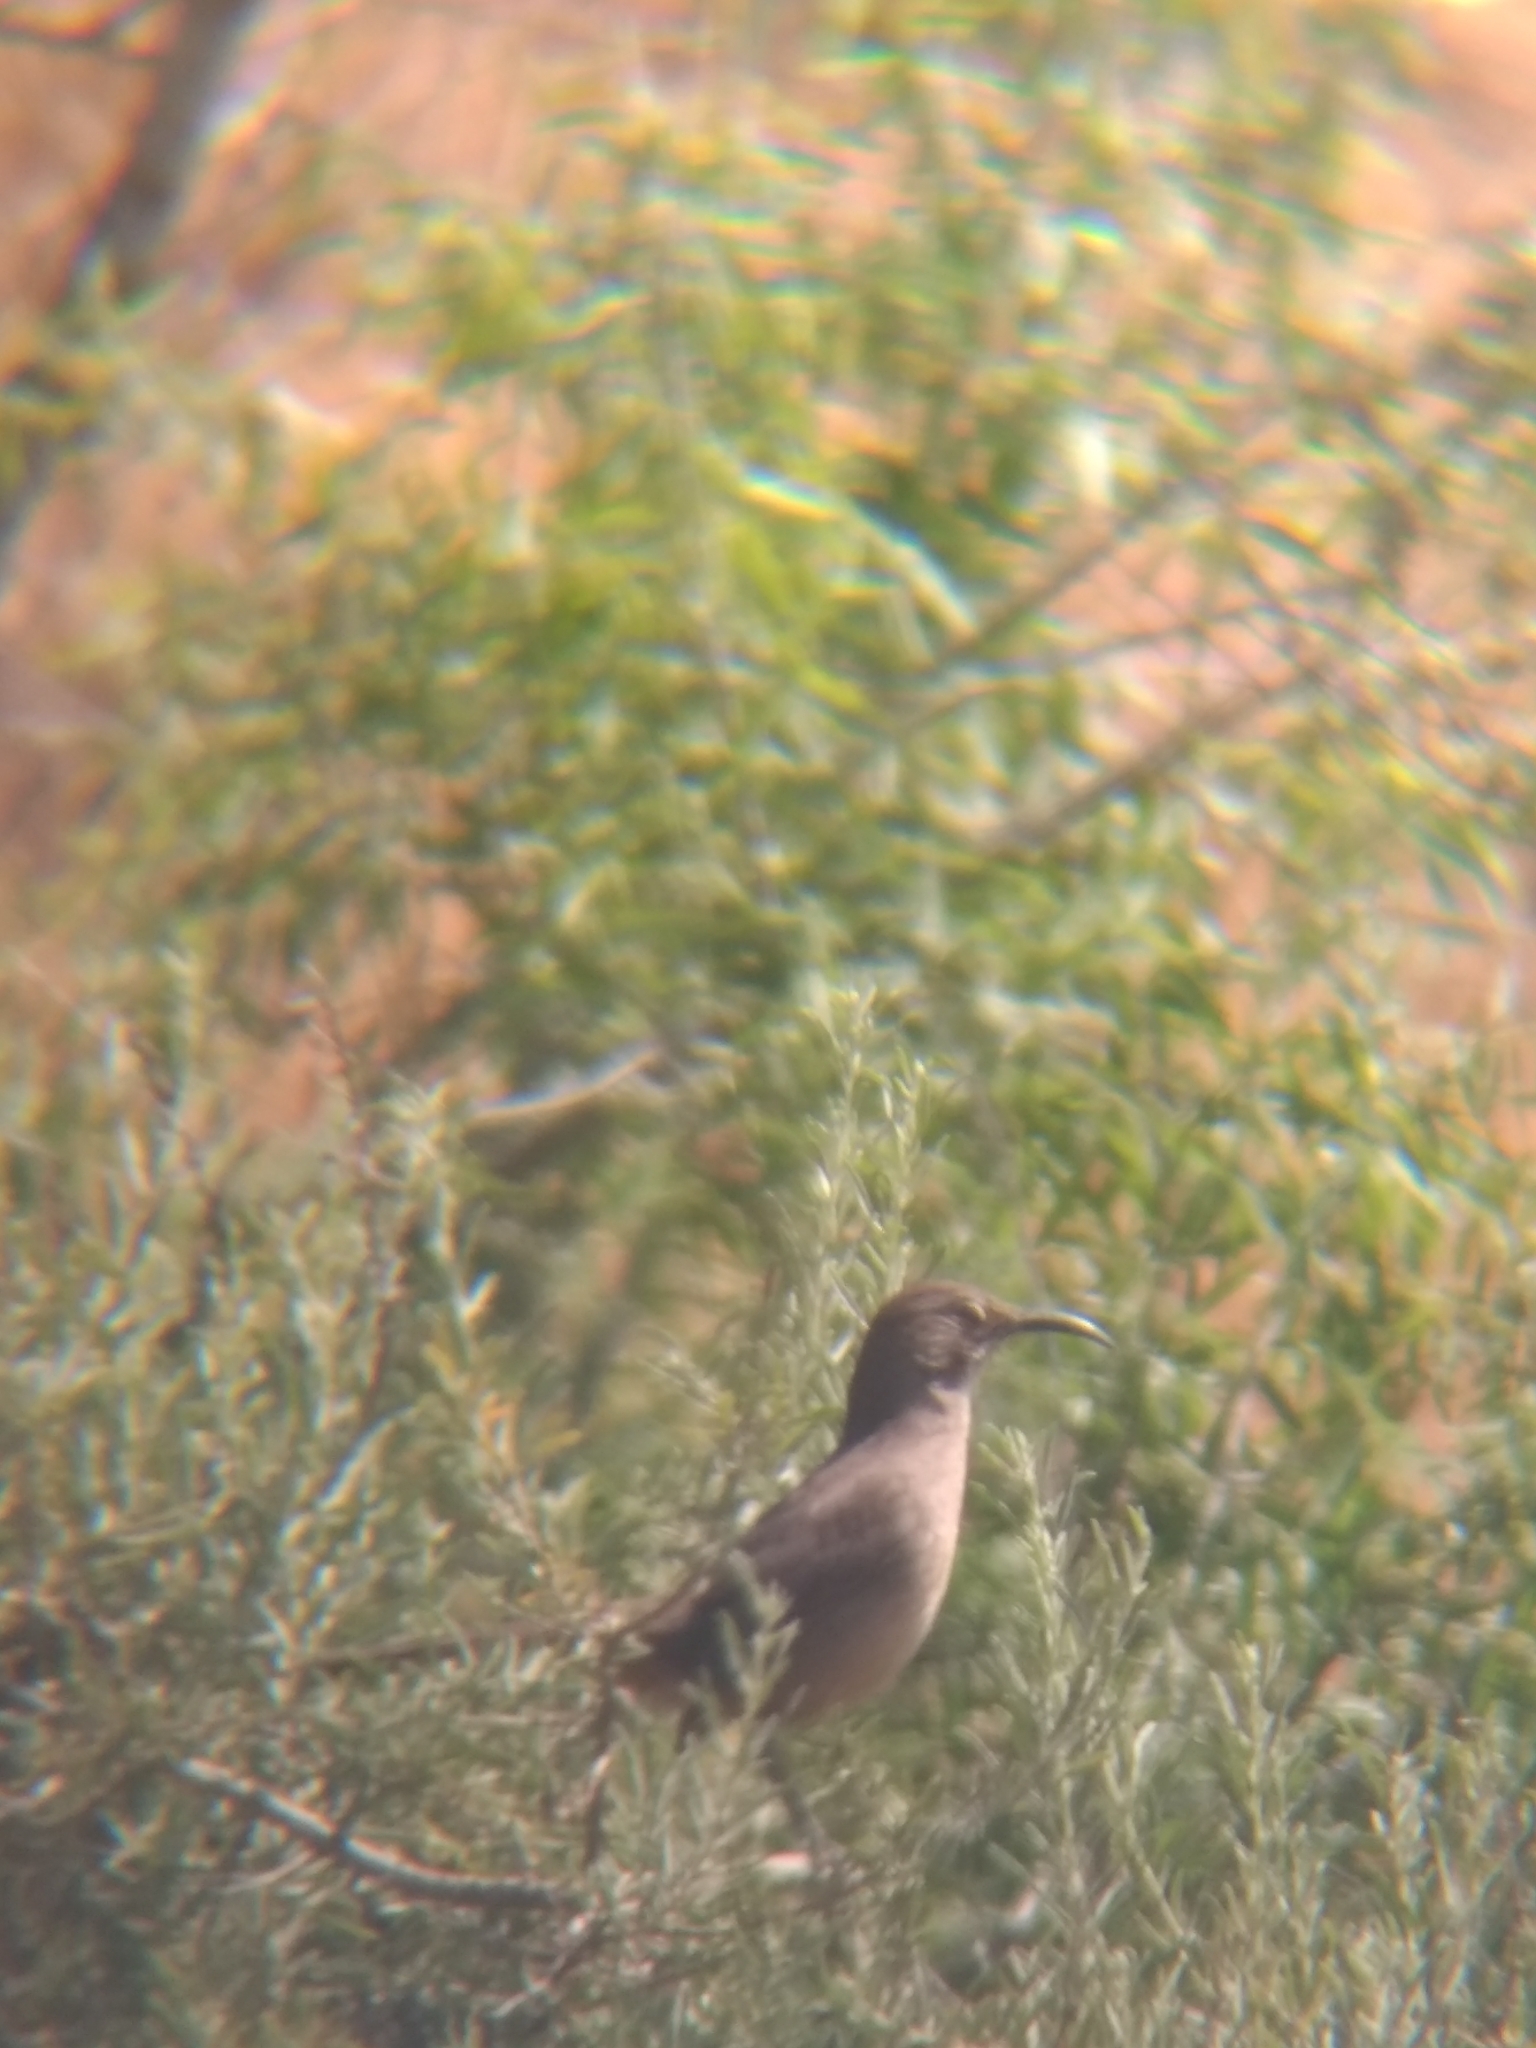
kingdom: Animalia
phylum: Chordata
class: Aves
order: Passeriformes
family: Mimidae
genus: Toxostoma
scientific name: Toxostoma redivivum
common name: California thrasher
